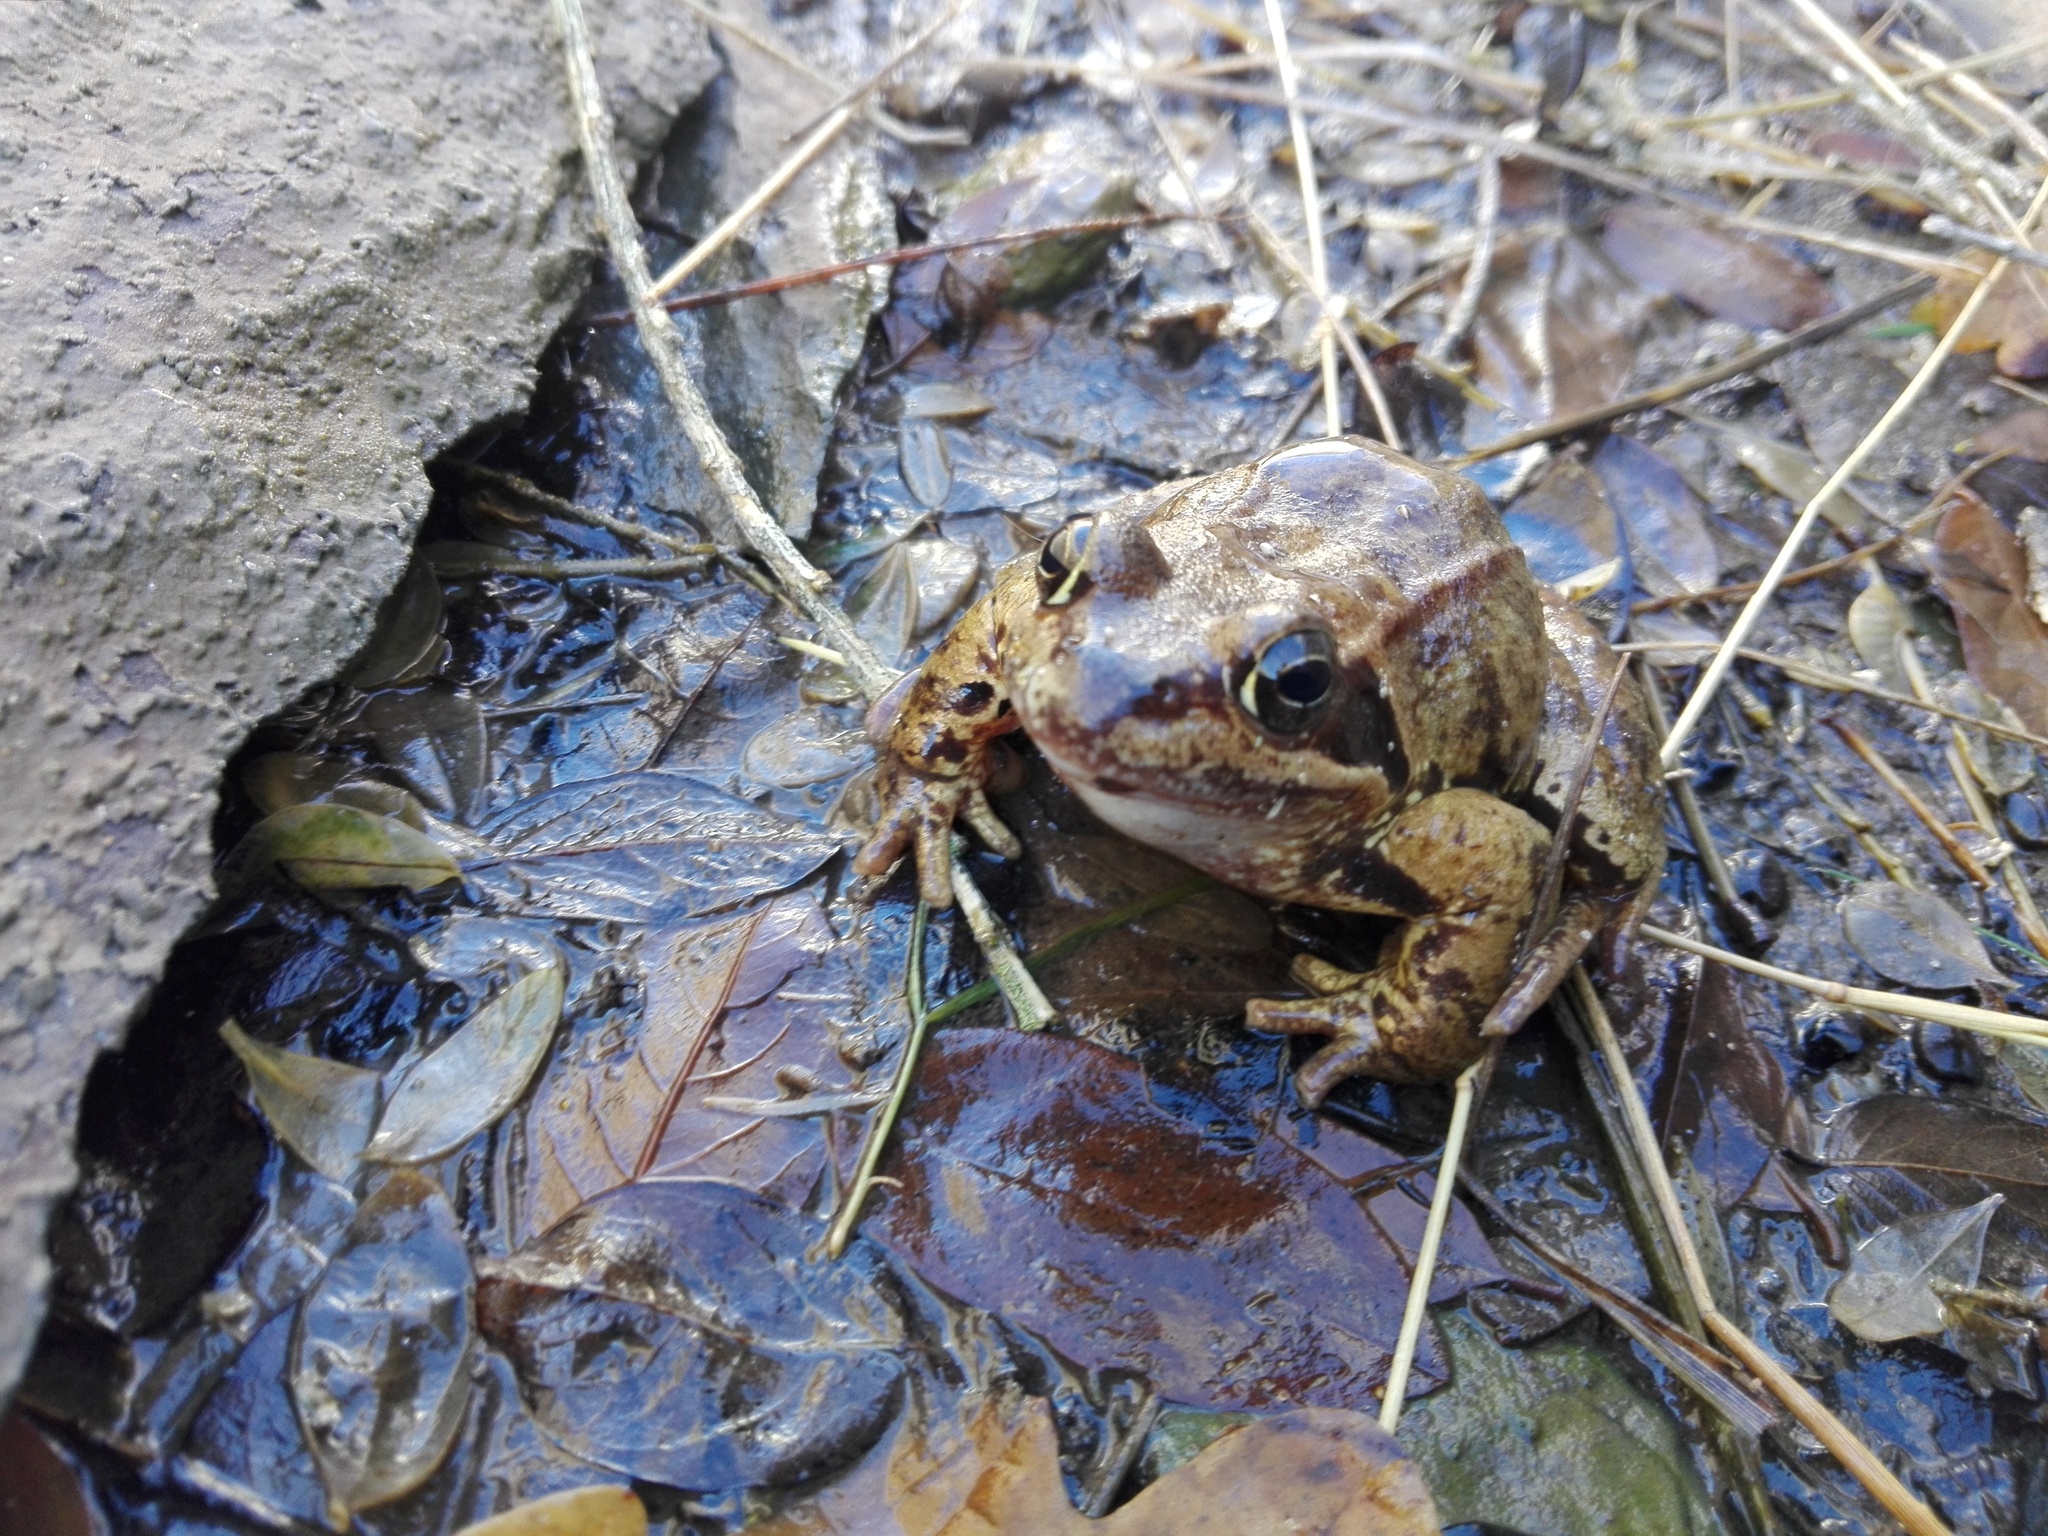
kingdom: Animalia
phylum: Chordata
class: Amphibia
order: Anura
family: Ranidae
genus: Rana
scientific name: Rana temporaria
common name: Common frog
